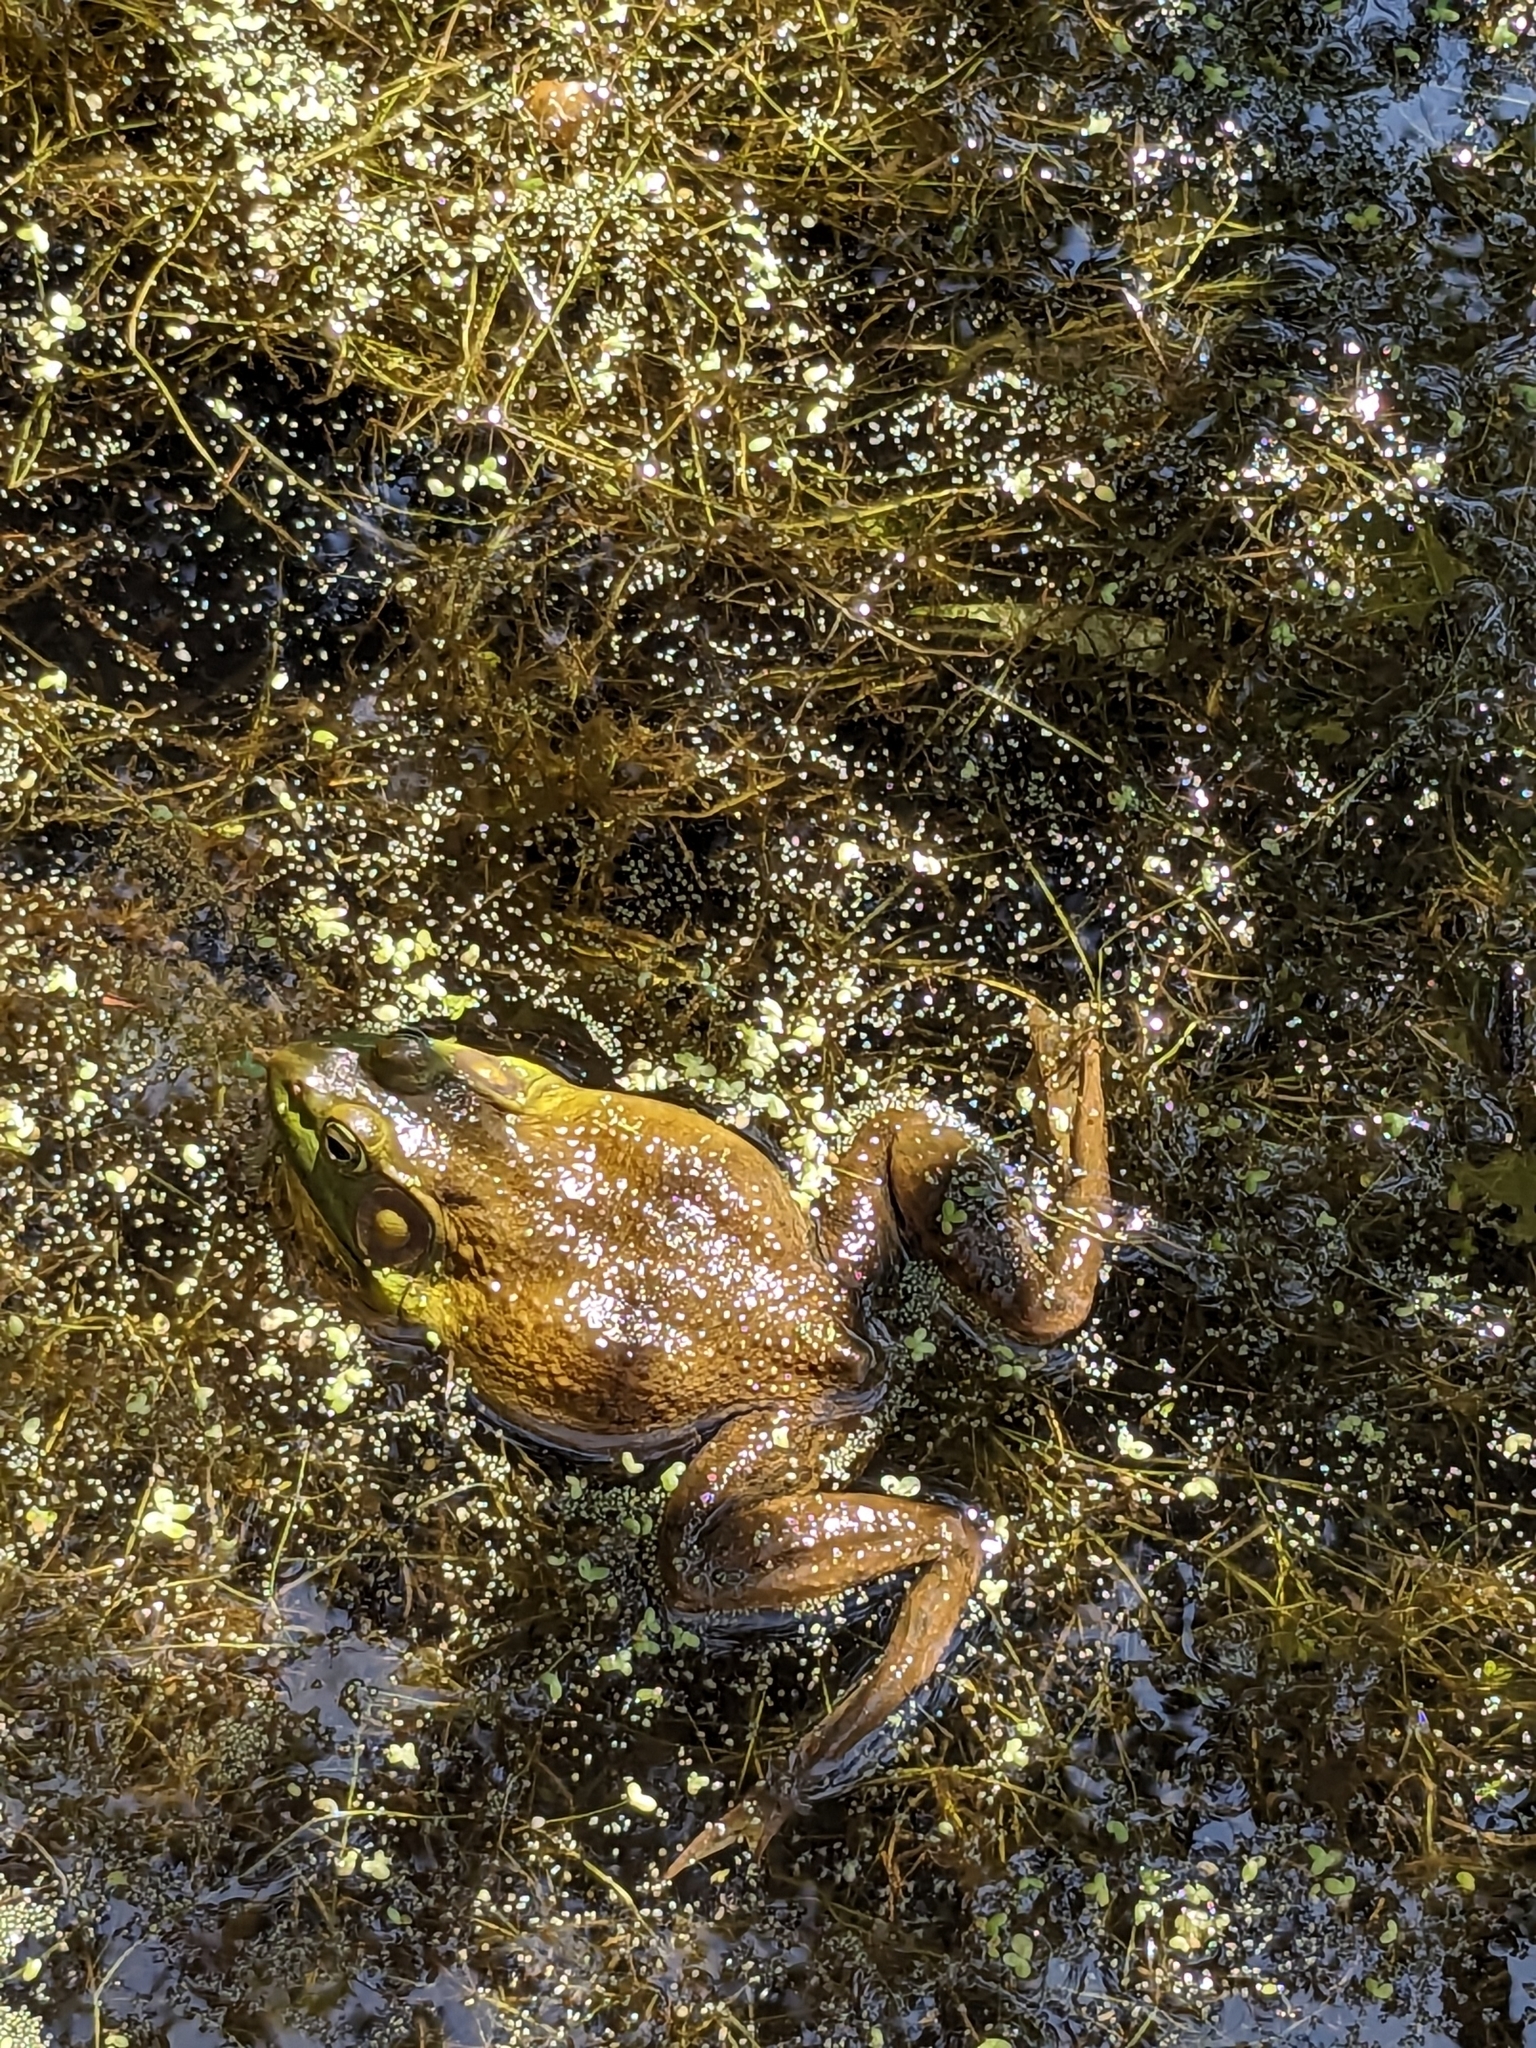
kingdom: Animalia
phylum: Chordata
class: Amphibia
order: Anura
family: Ranidae
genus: Lithobates
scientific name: Lithobates catesbeianus
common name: American bullfrog
